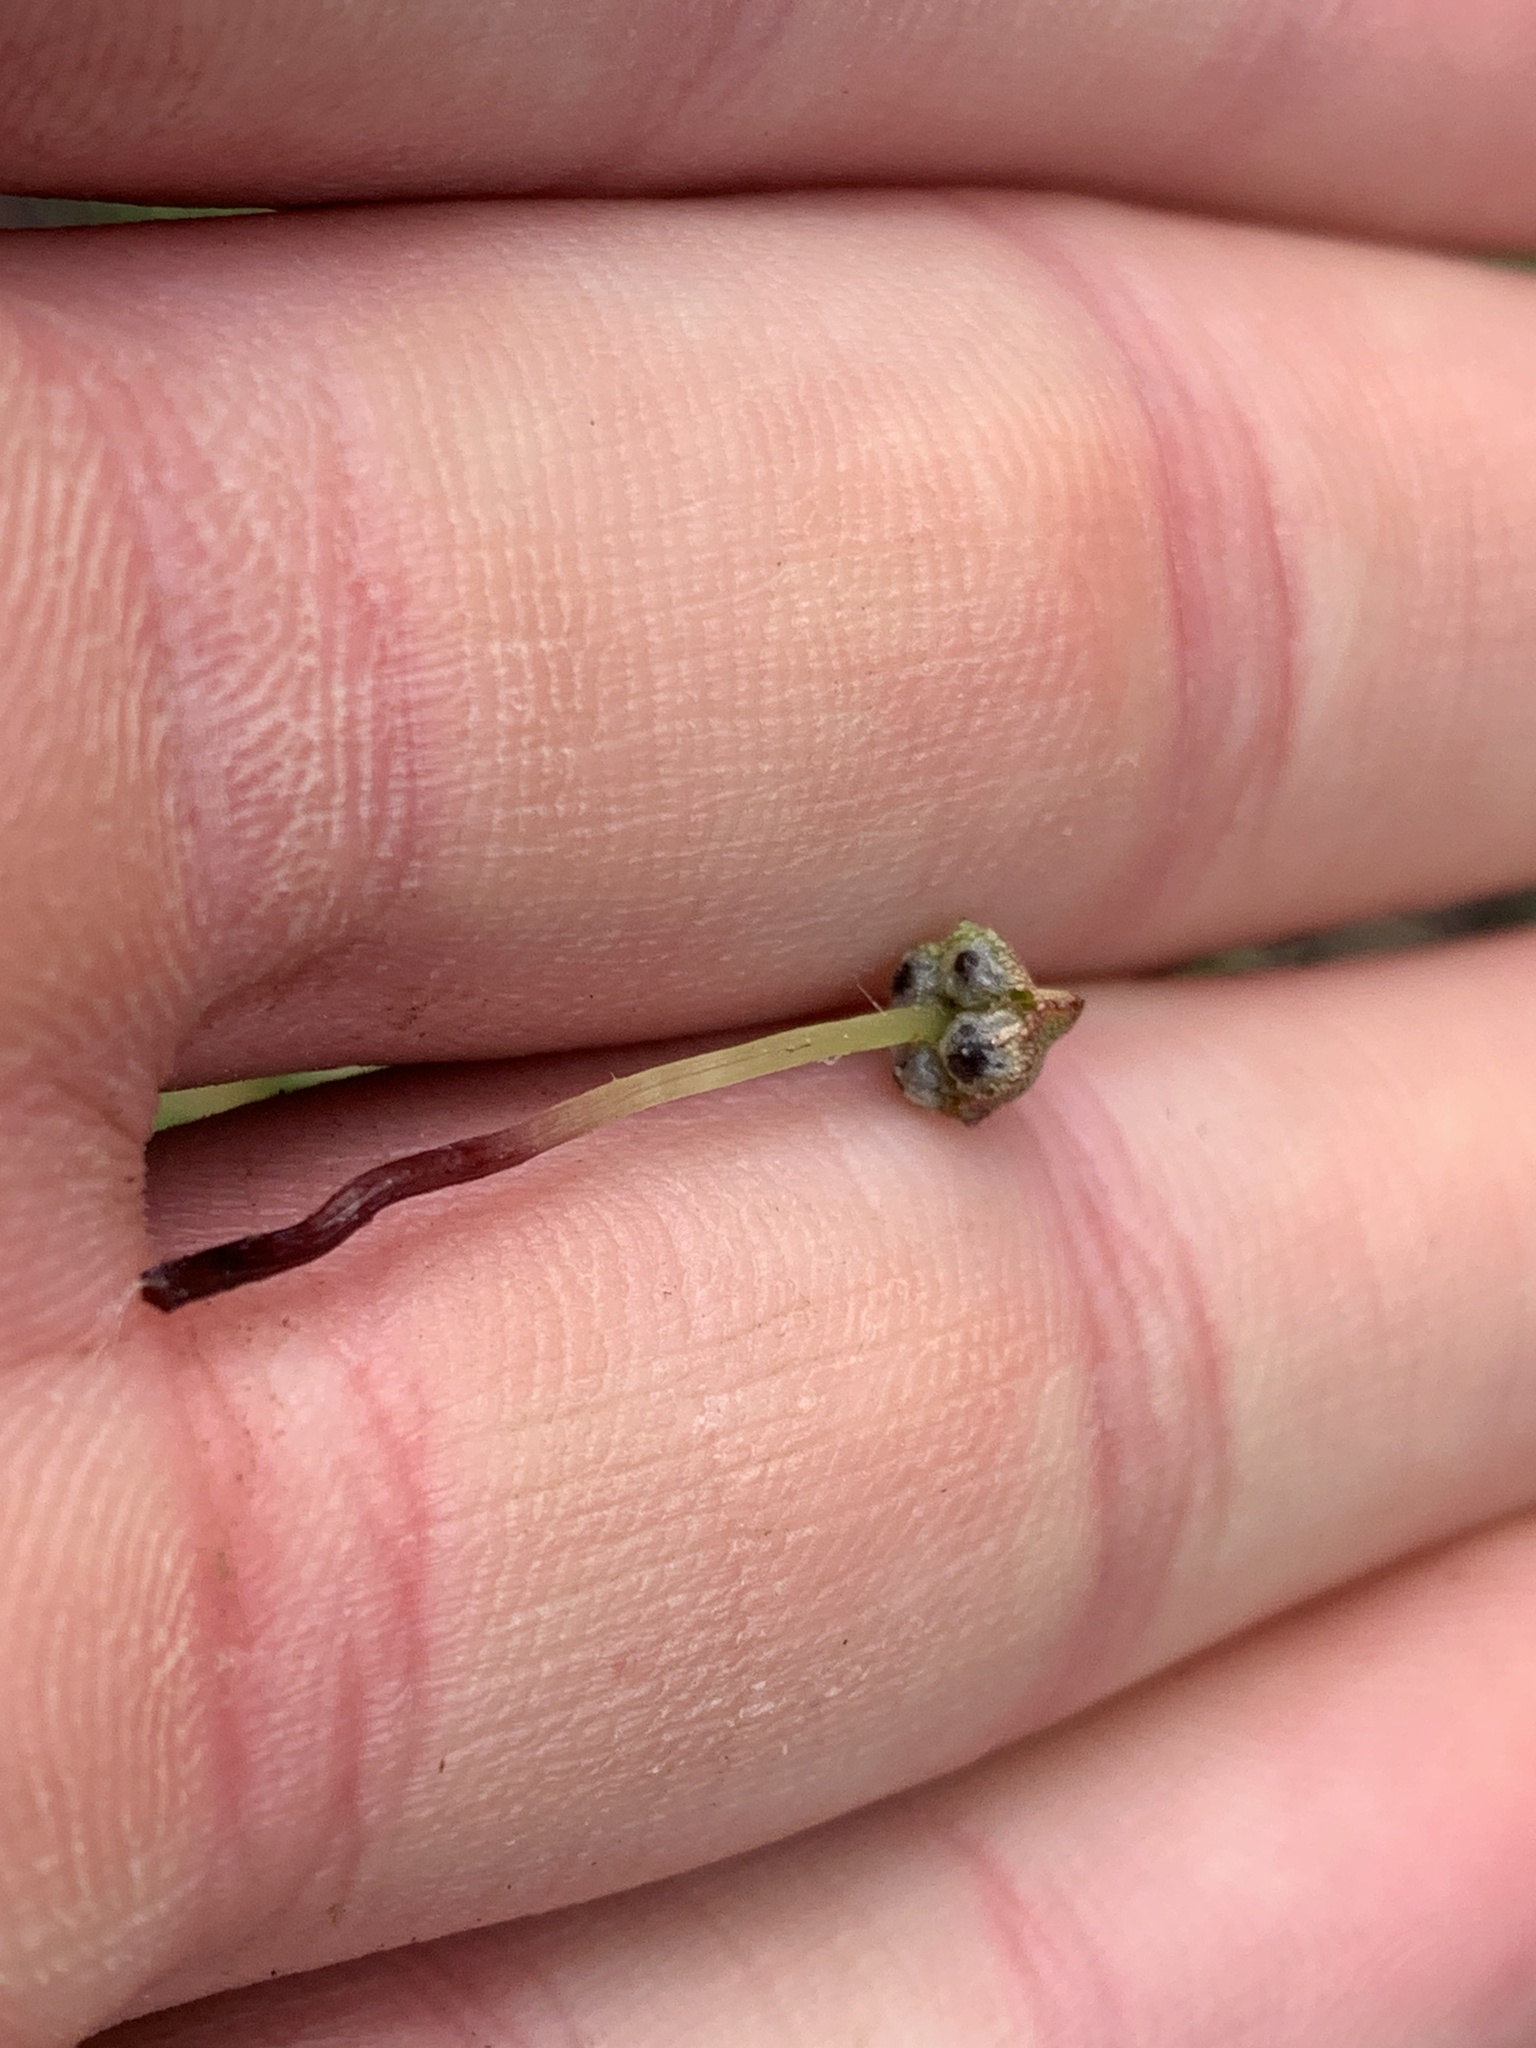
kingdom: Plantae
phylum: Marchantiophyta
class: Marchantiopsida
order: Marchantiales
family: Marchantiaceae
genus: Marchantia
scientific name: Marchantia quadrata
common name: Narrow mushroom-headed liverwort
